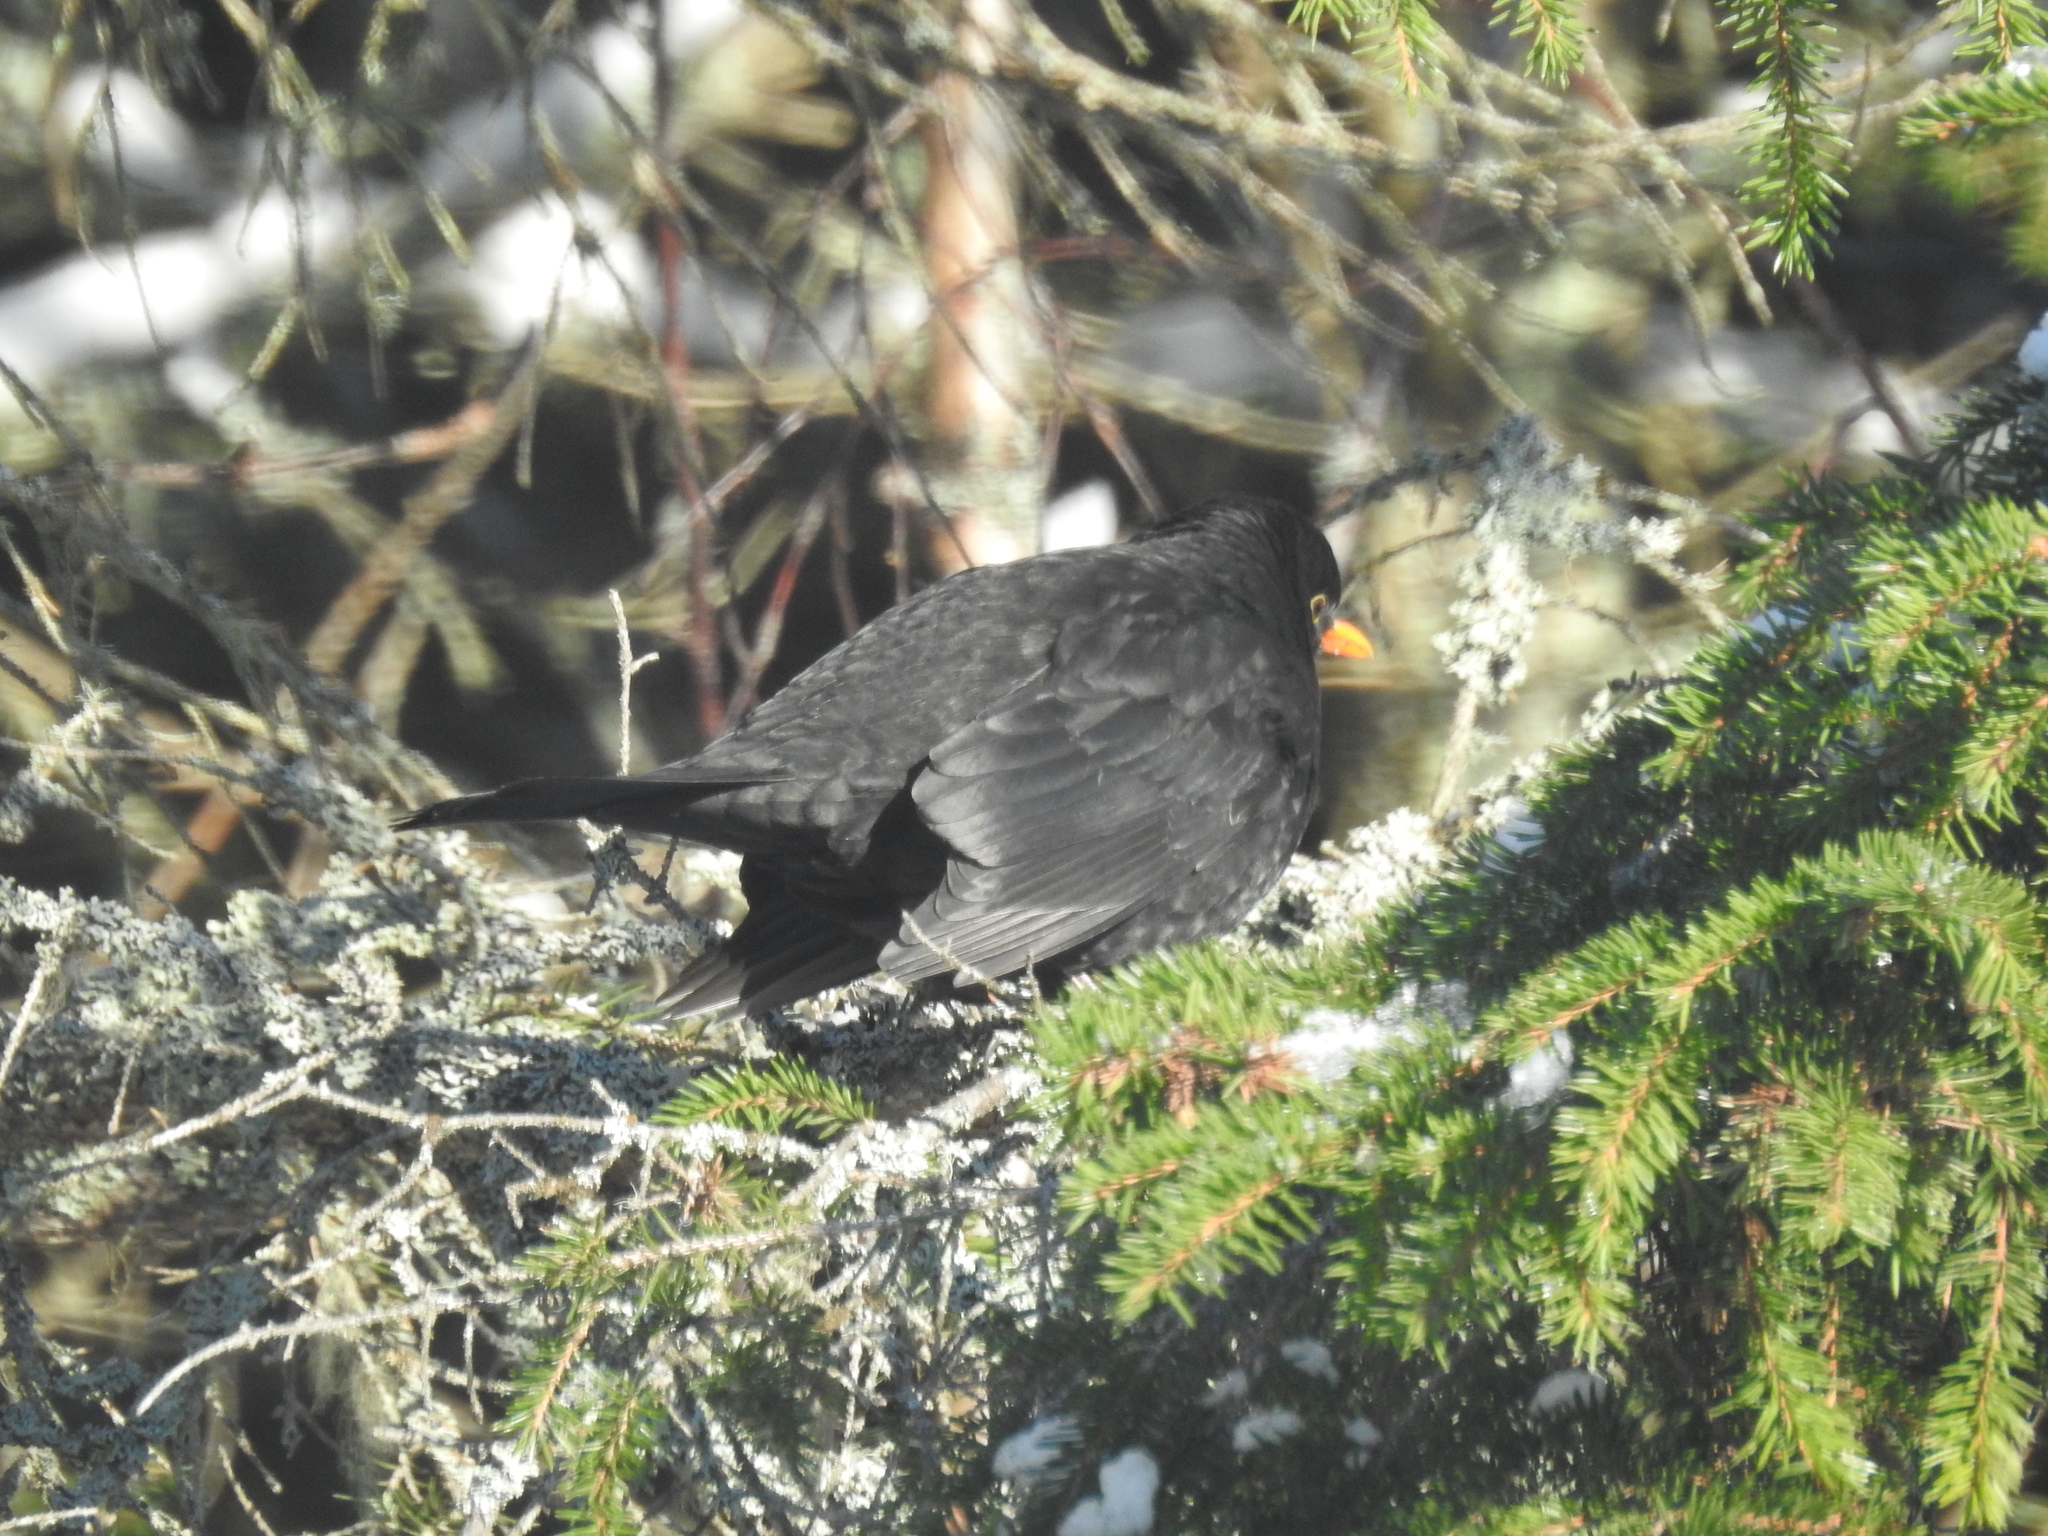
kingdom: Animalia
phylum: Chordata
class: Aves
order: Passeriformes
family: Turdidae
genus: Turdus
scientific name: Turdus merula
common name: Common blackbird
